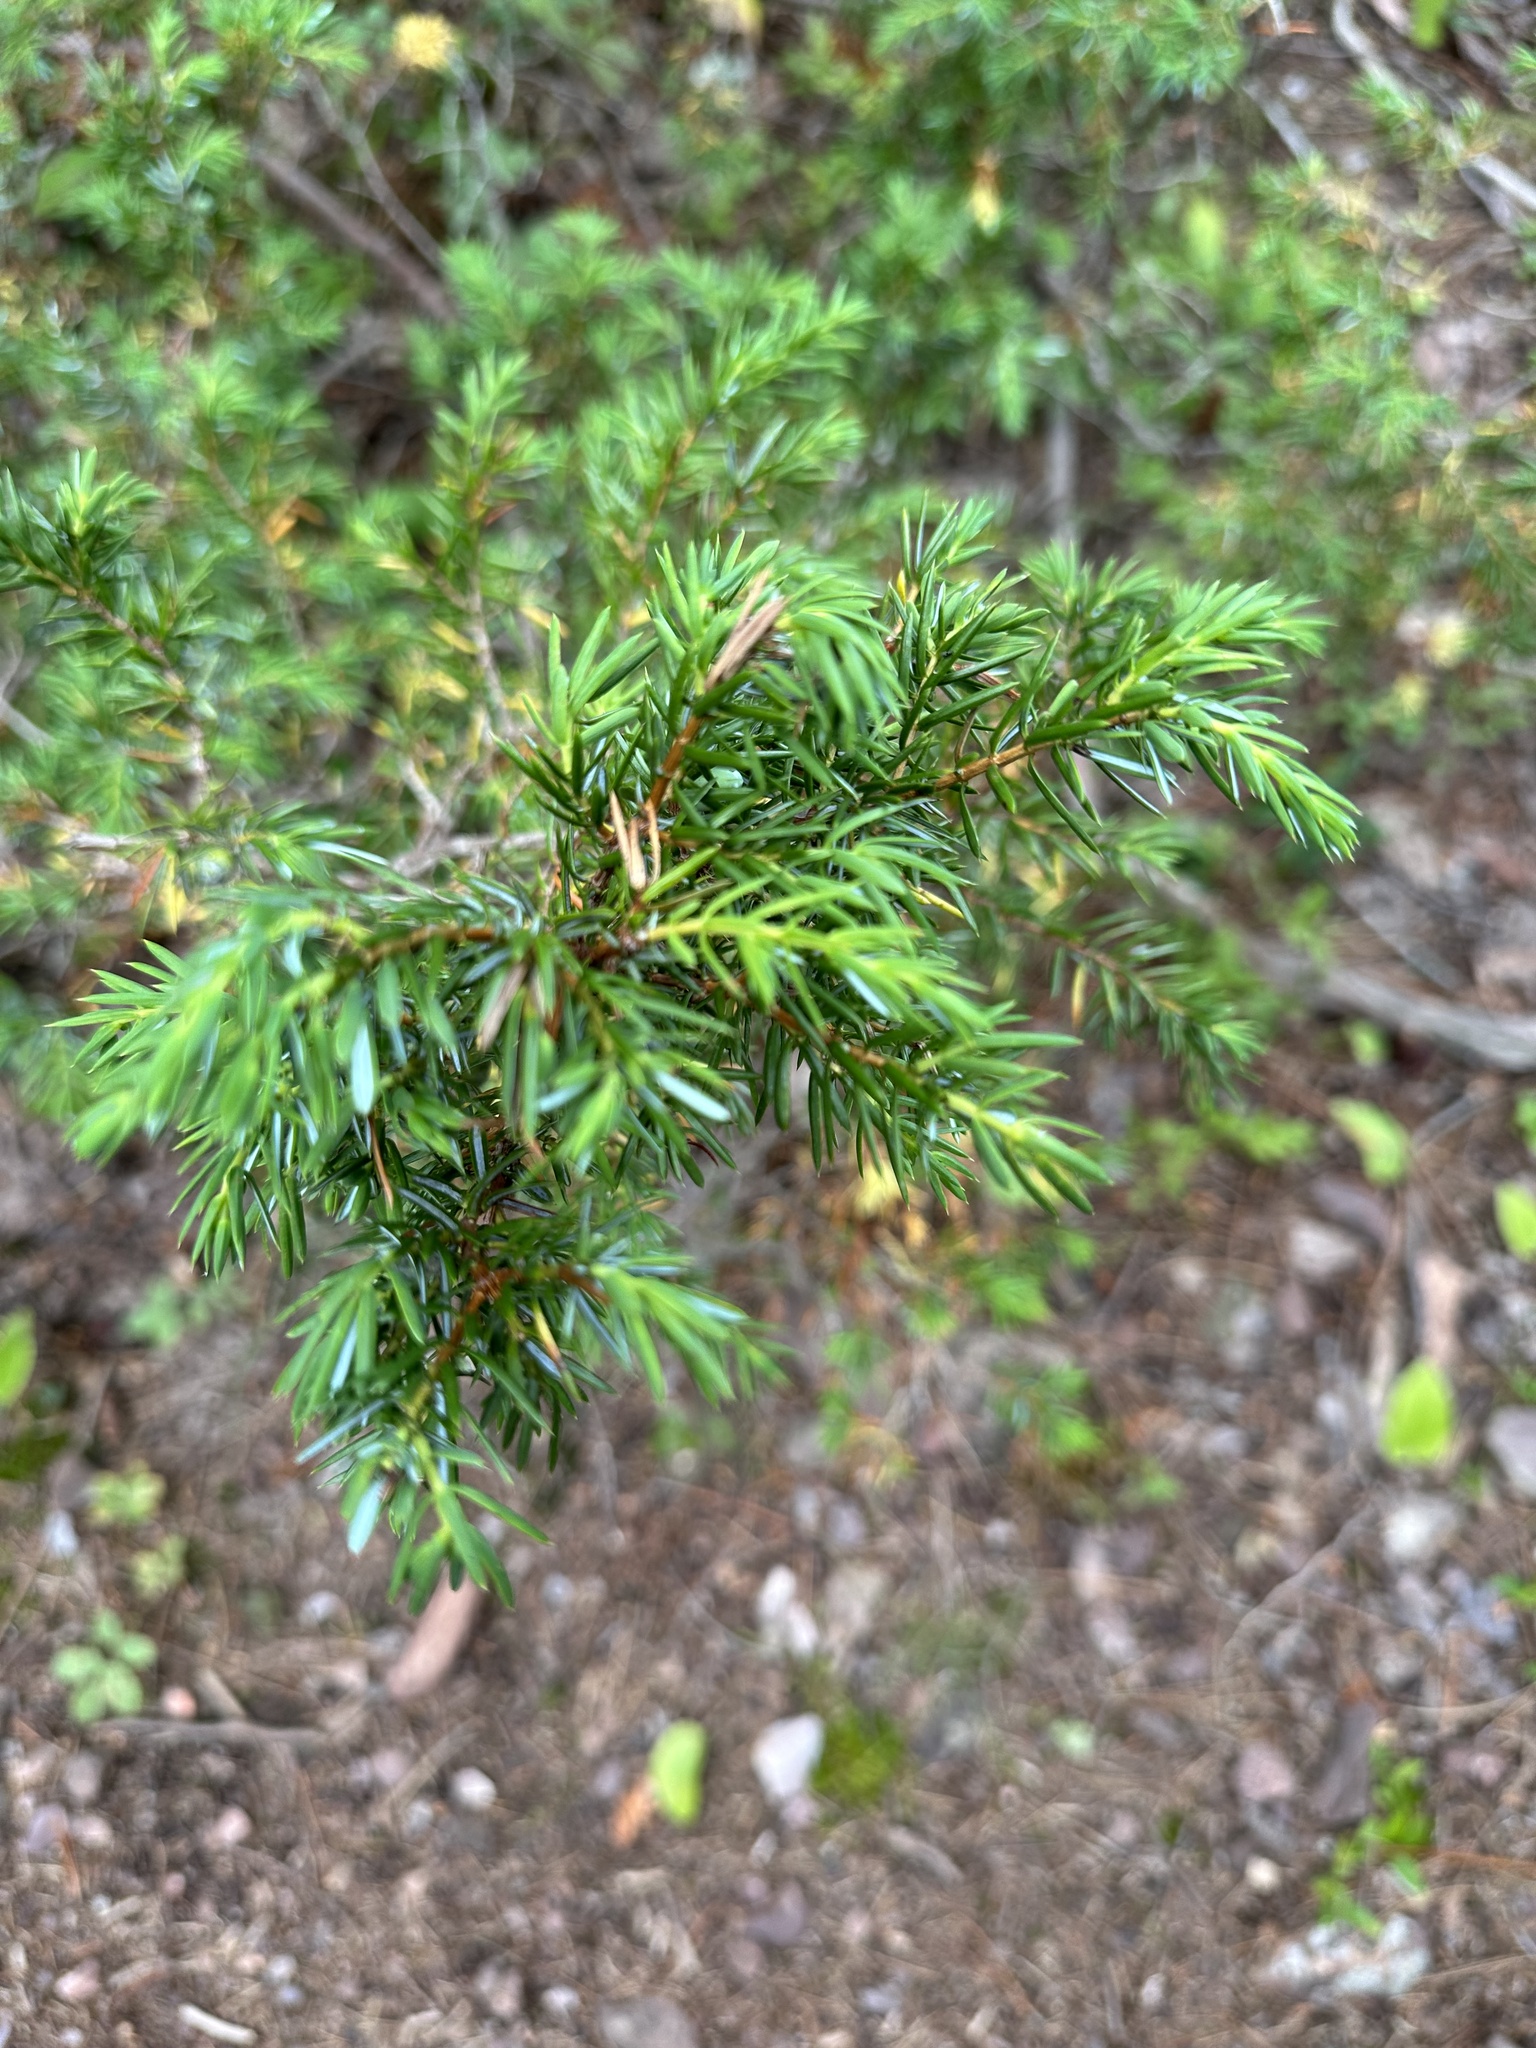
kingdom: Plantae
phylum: Tracheophyta
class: Pinopsida
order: Pinales
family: Cupressaceae
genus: Juniperus
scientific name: Juniperus communis
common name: Common juniper
